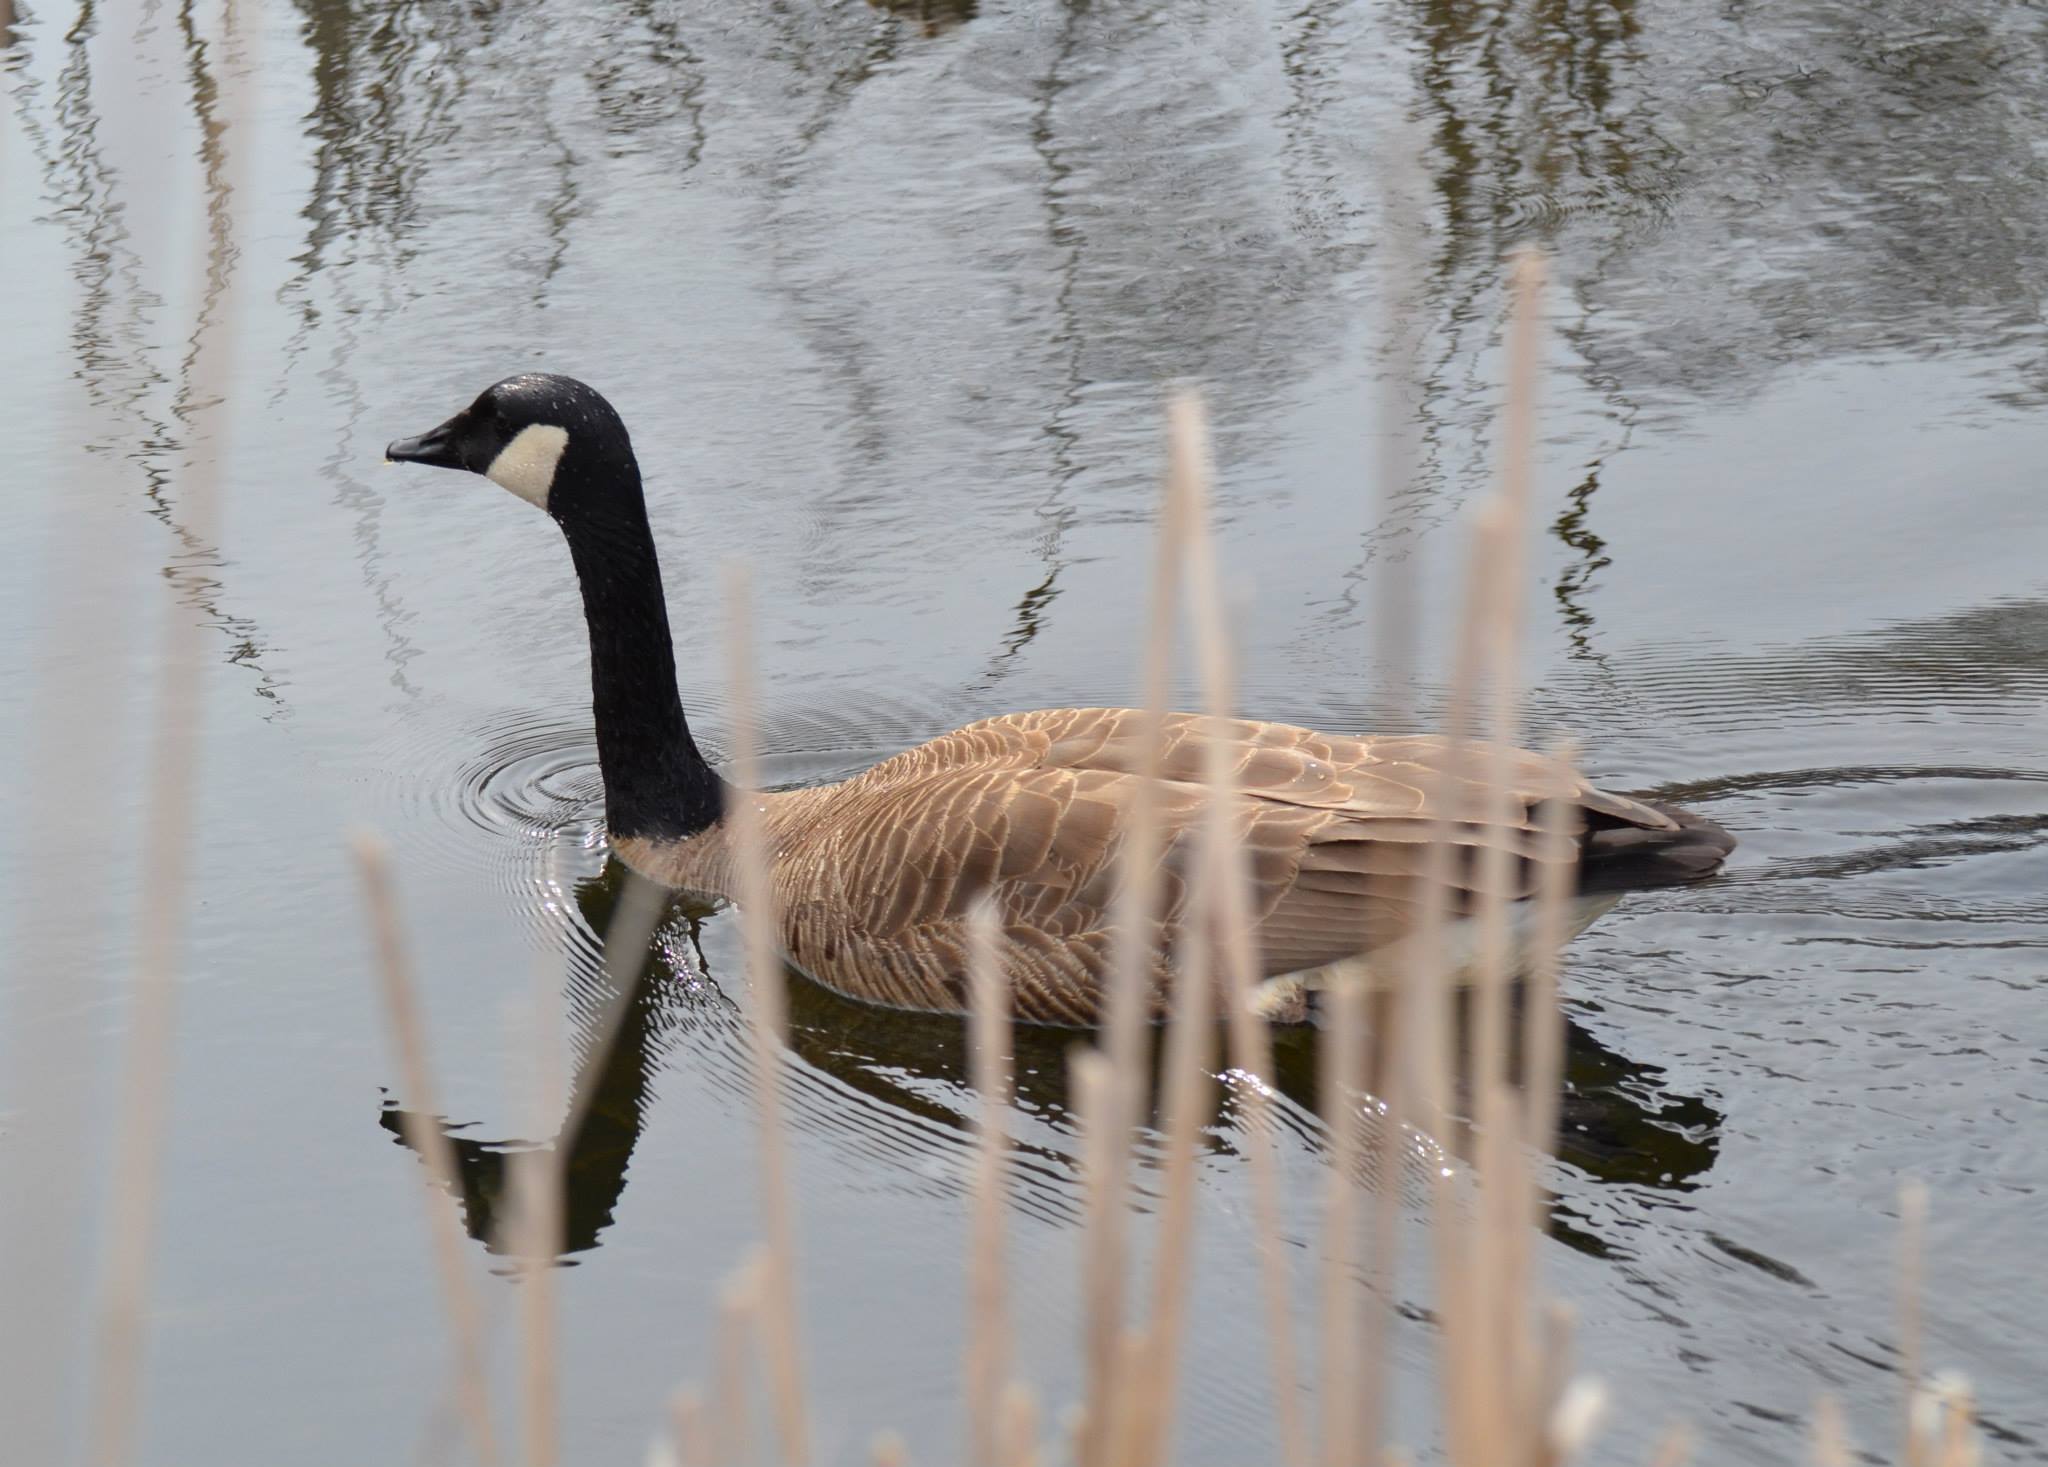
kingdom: Animalia
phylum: Chordata
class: Aves
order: Anseriformes
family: Anatidae
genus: Branta
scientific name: Branta canadensis
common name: Canada goose
